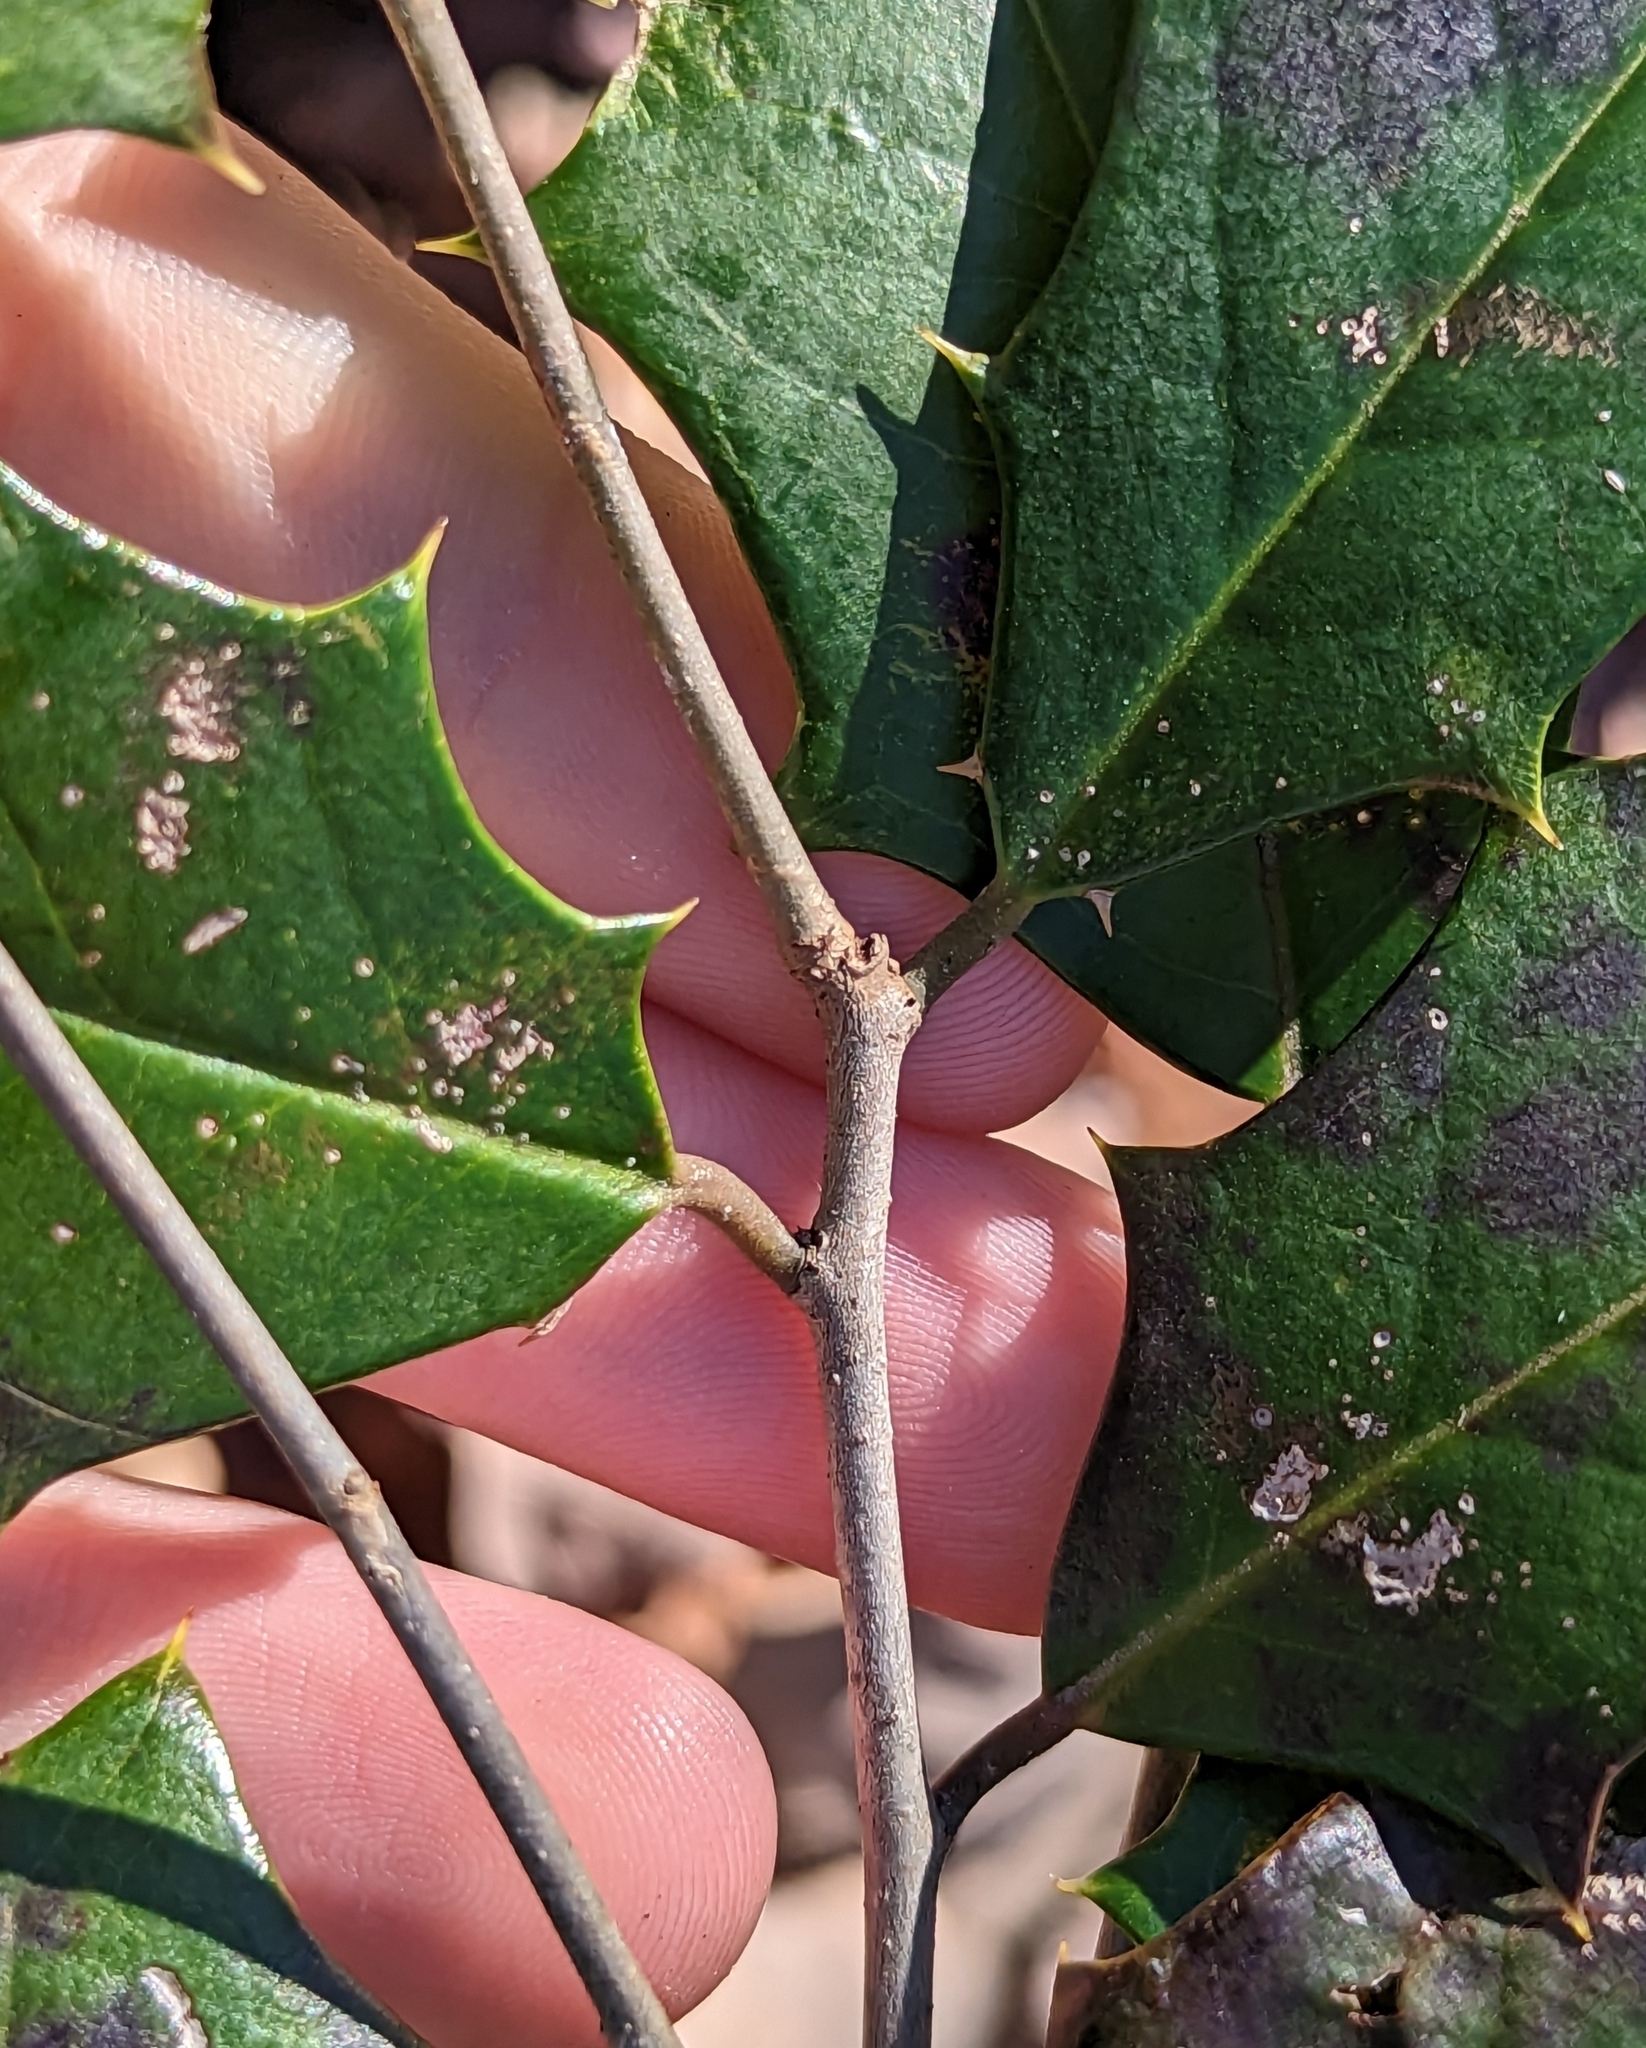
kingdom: Plantae
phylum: Tracheophyta
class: Magnoliopsida
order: Aquifoliales
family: Aquifoliaceae
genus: Ilex
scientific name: Ilex opaca
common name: American holly
